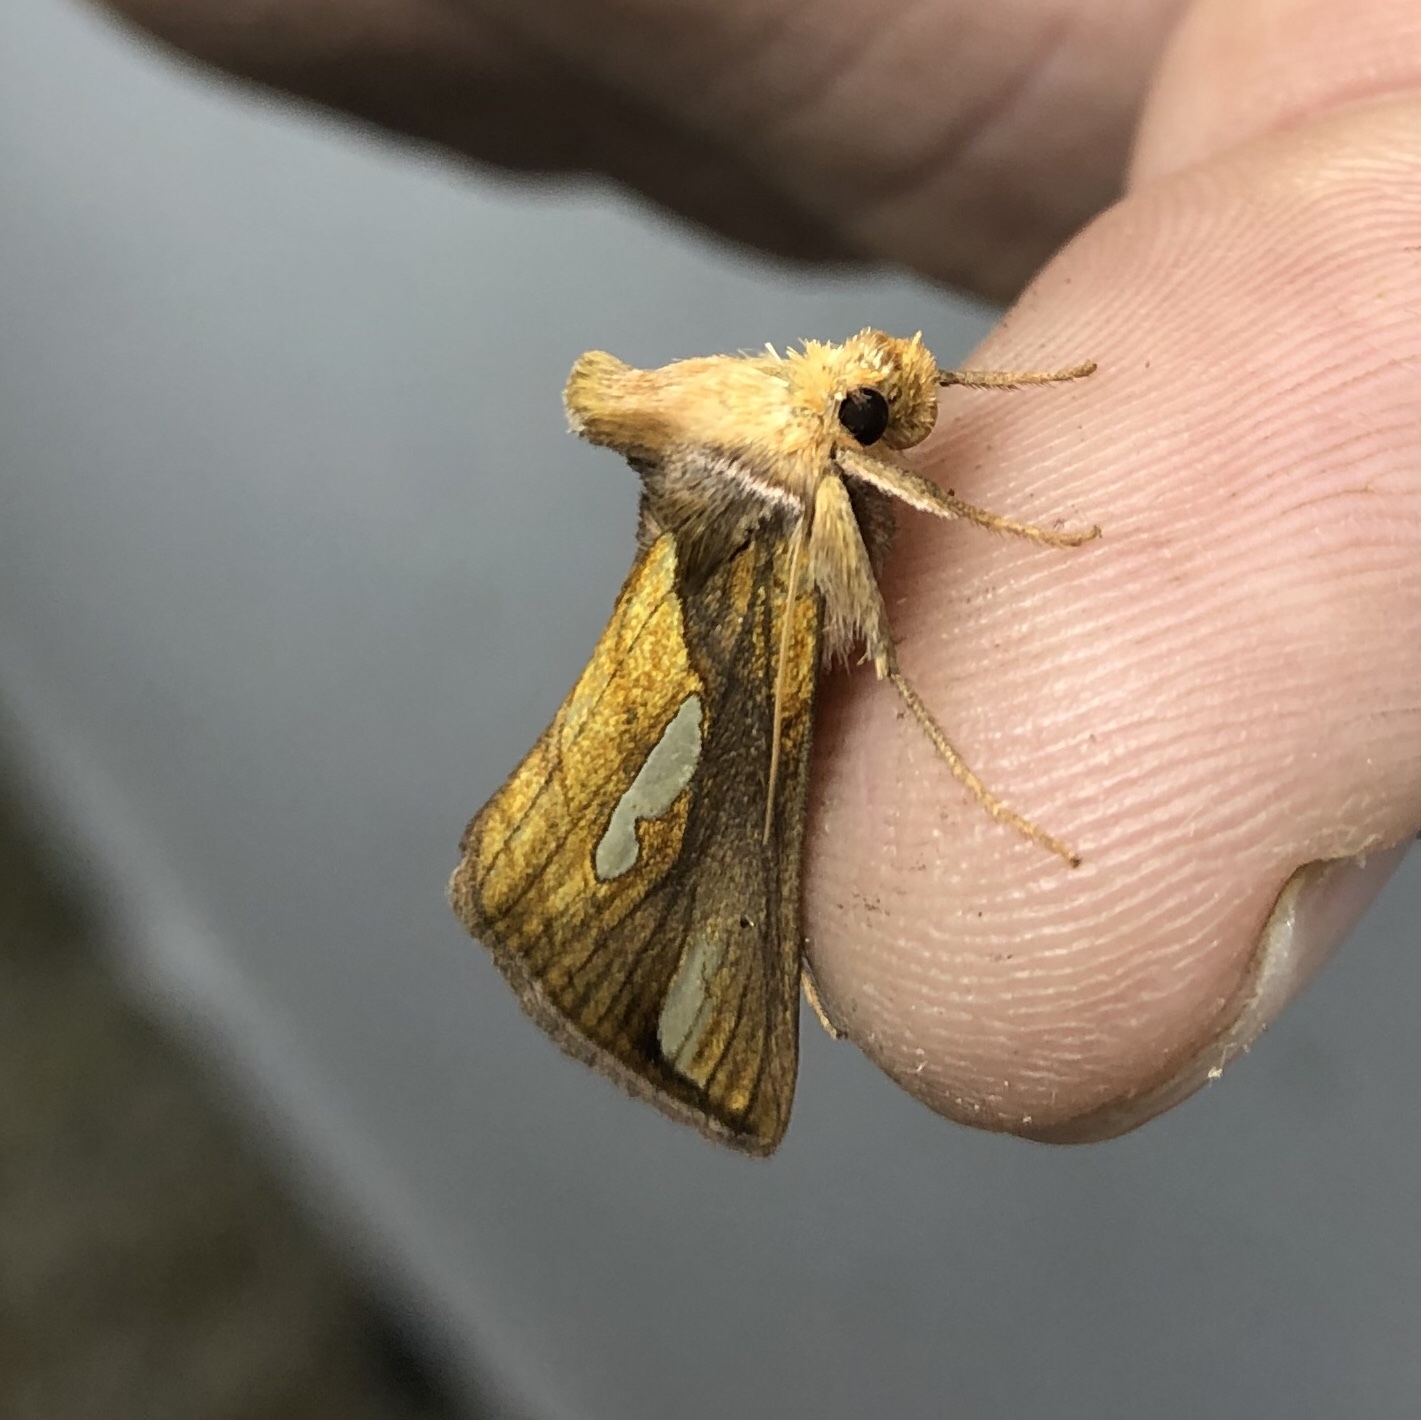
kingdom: Animalia
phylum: Arthropoda
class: Insecta
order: Lepidoptera
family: Noctuidae
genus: Plusia
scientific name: Plusia contexta
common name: Connected looper moth
